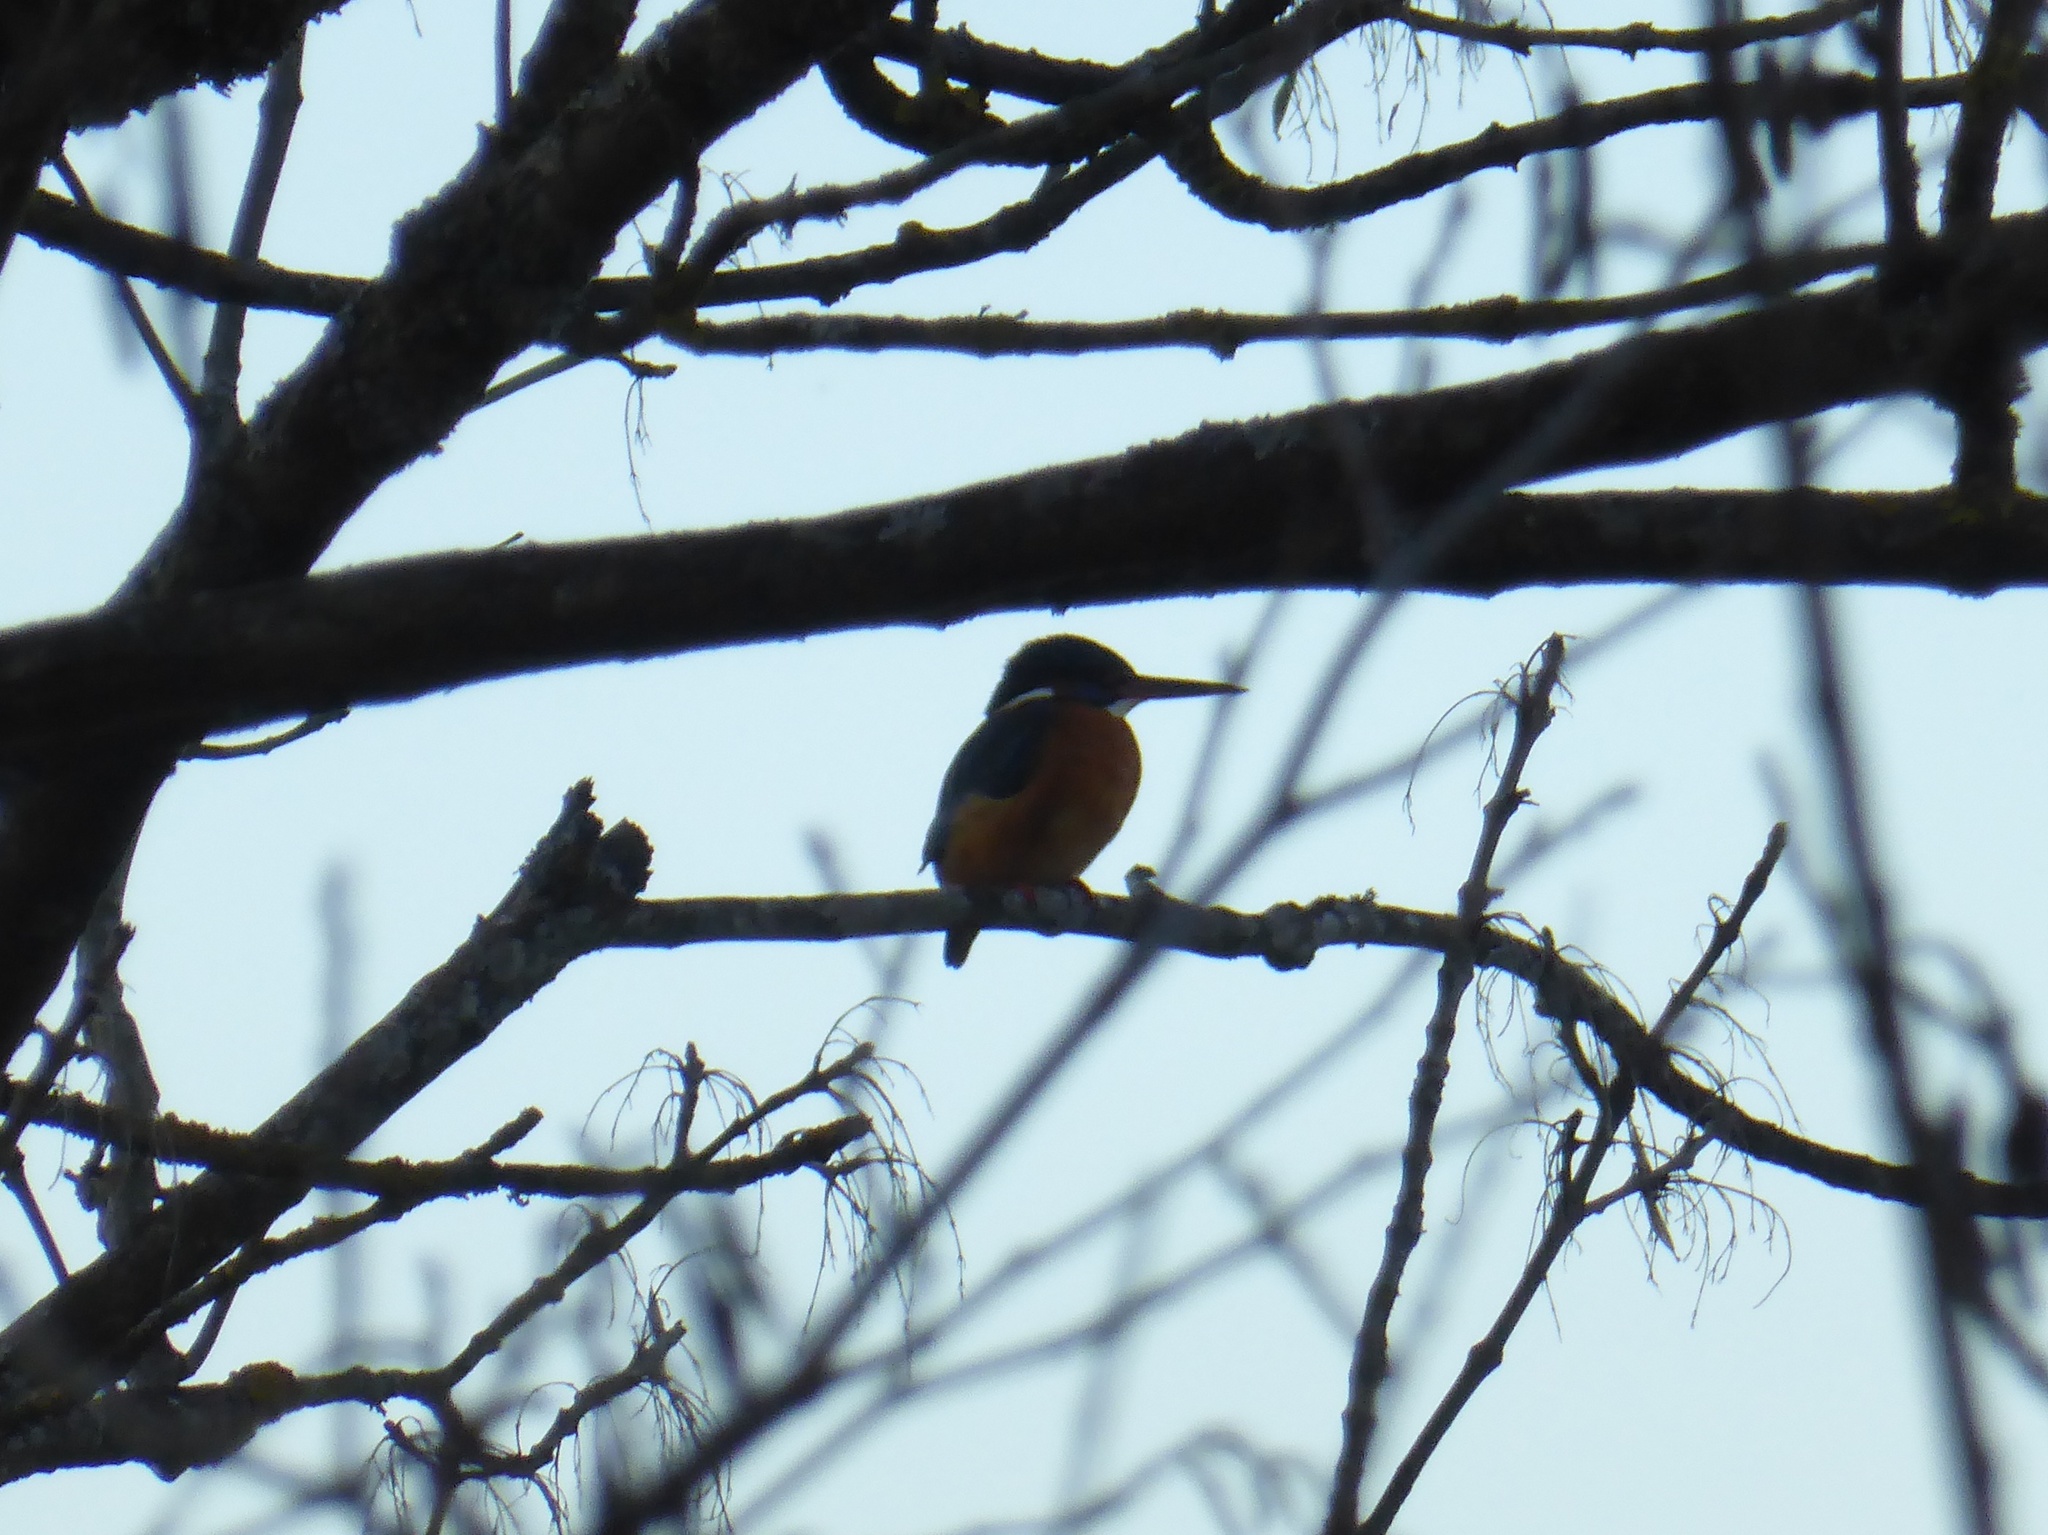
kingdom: Animalia
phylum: Chordata
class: Aves
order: Coraciiformes
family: Alcedinidae
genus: Alcedo
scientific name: Alcedo atthis
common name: Common kingfisher
